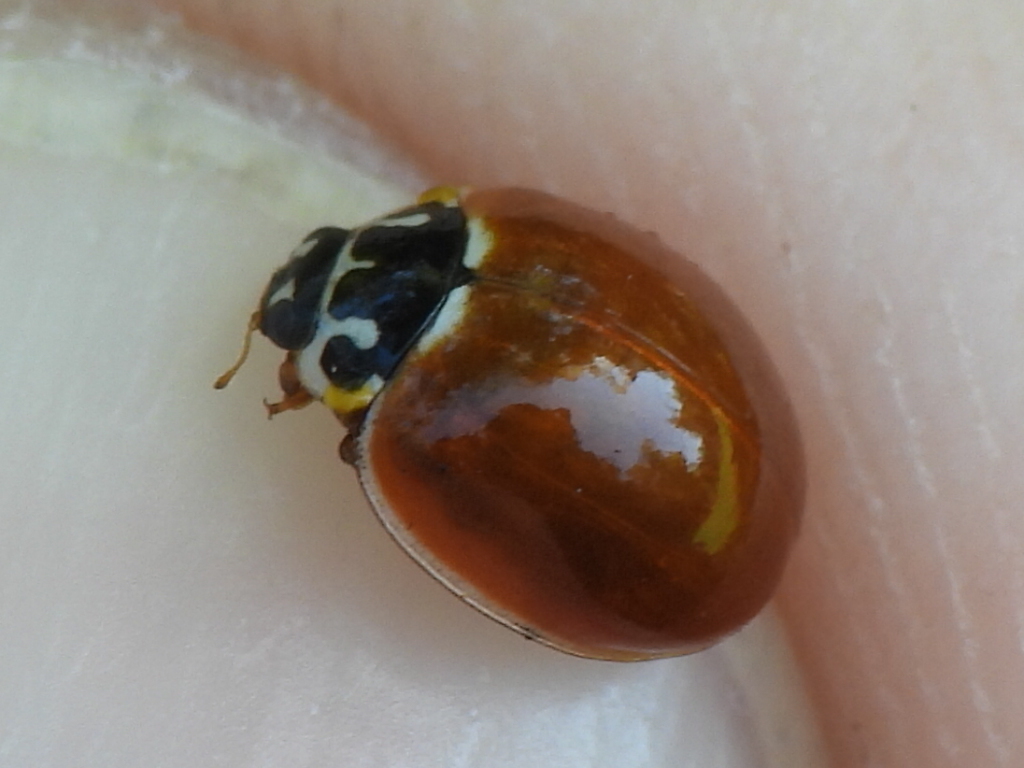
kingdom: Animalia
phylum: Arthropoda
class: Insecta
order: Coleoptera
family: Coccinellidae
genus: Cycloneda
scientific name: Cycloneda munda
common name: Polished lady beetle
